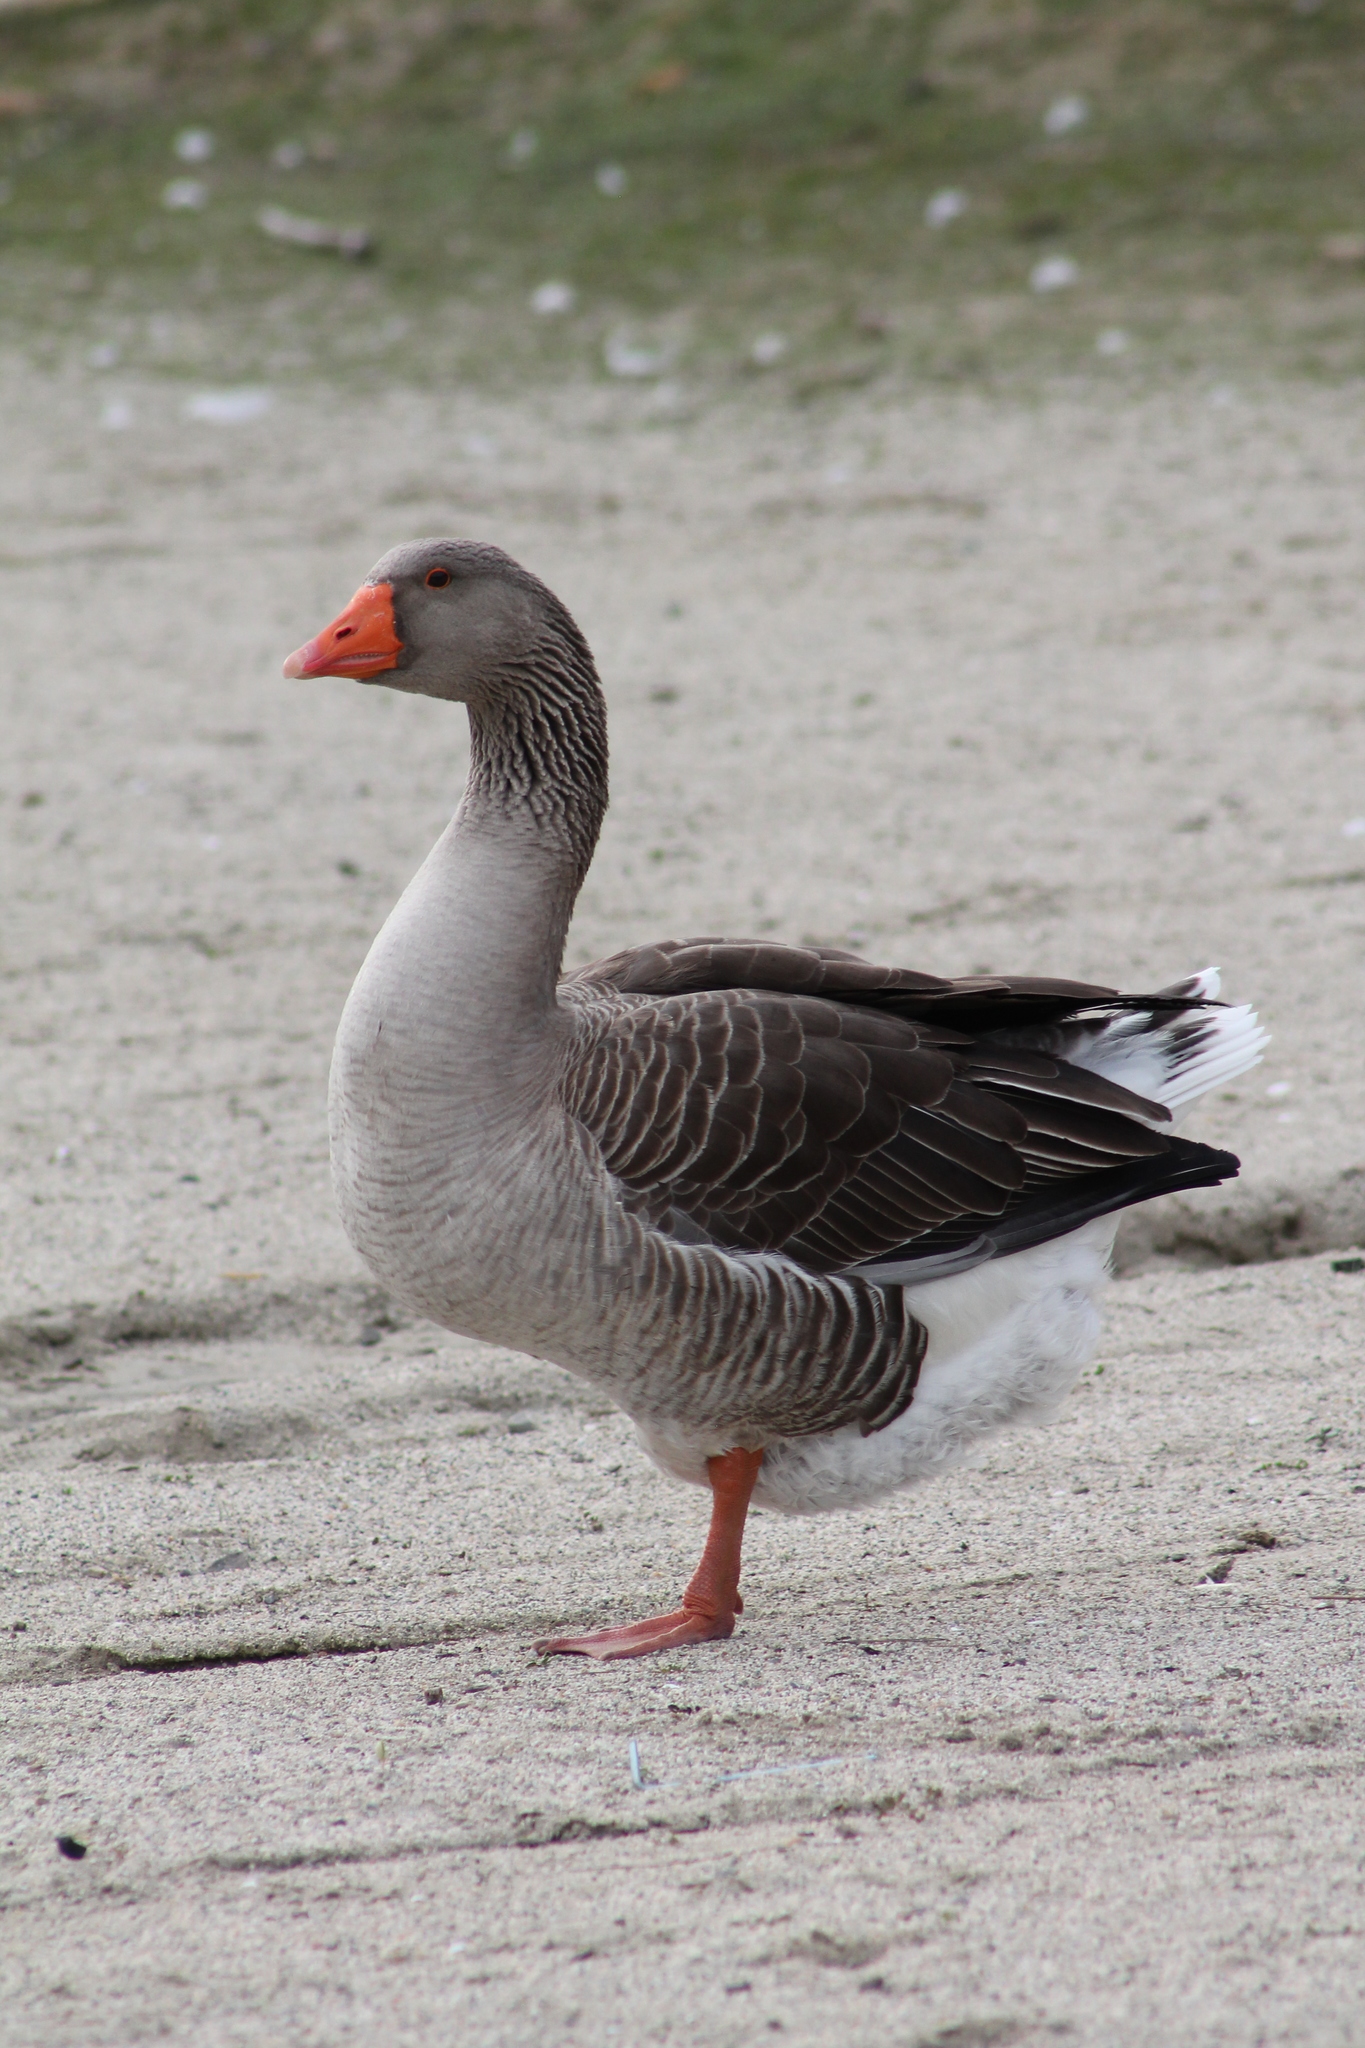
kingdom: Animalia
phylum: Chordata
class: Aves
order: Anseriformes
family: Anatidae
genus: Anser
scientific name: Anser anser
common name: Greylag goose
